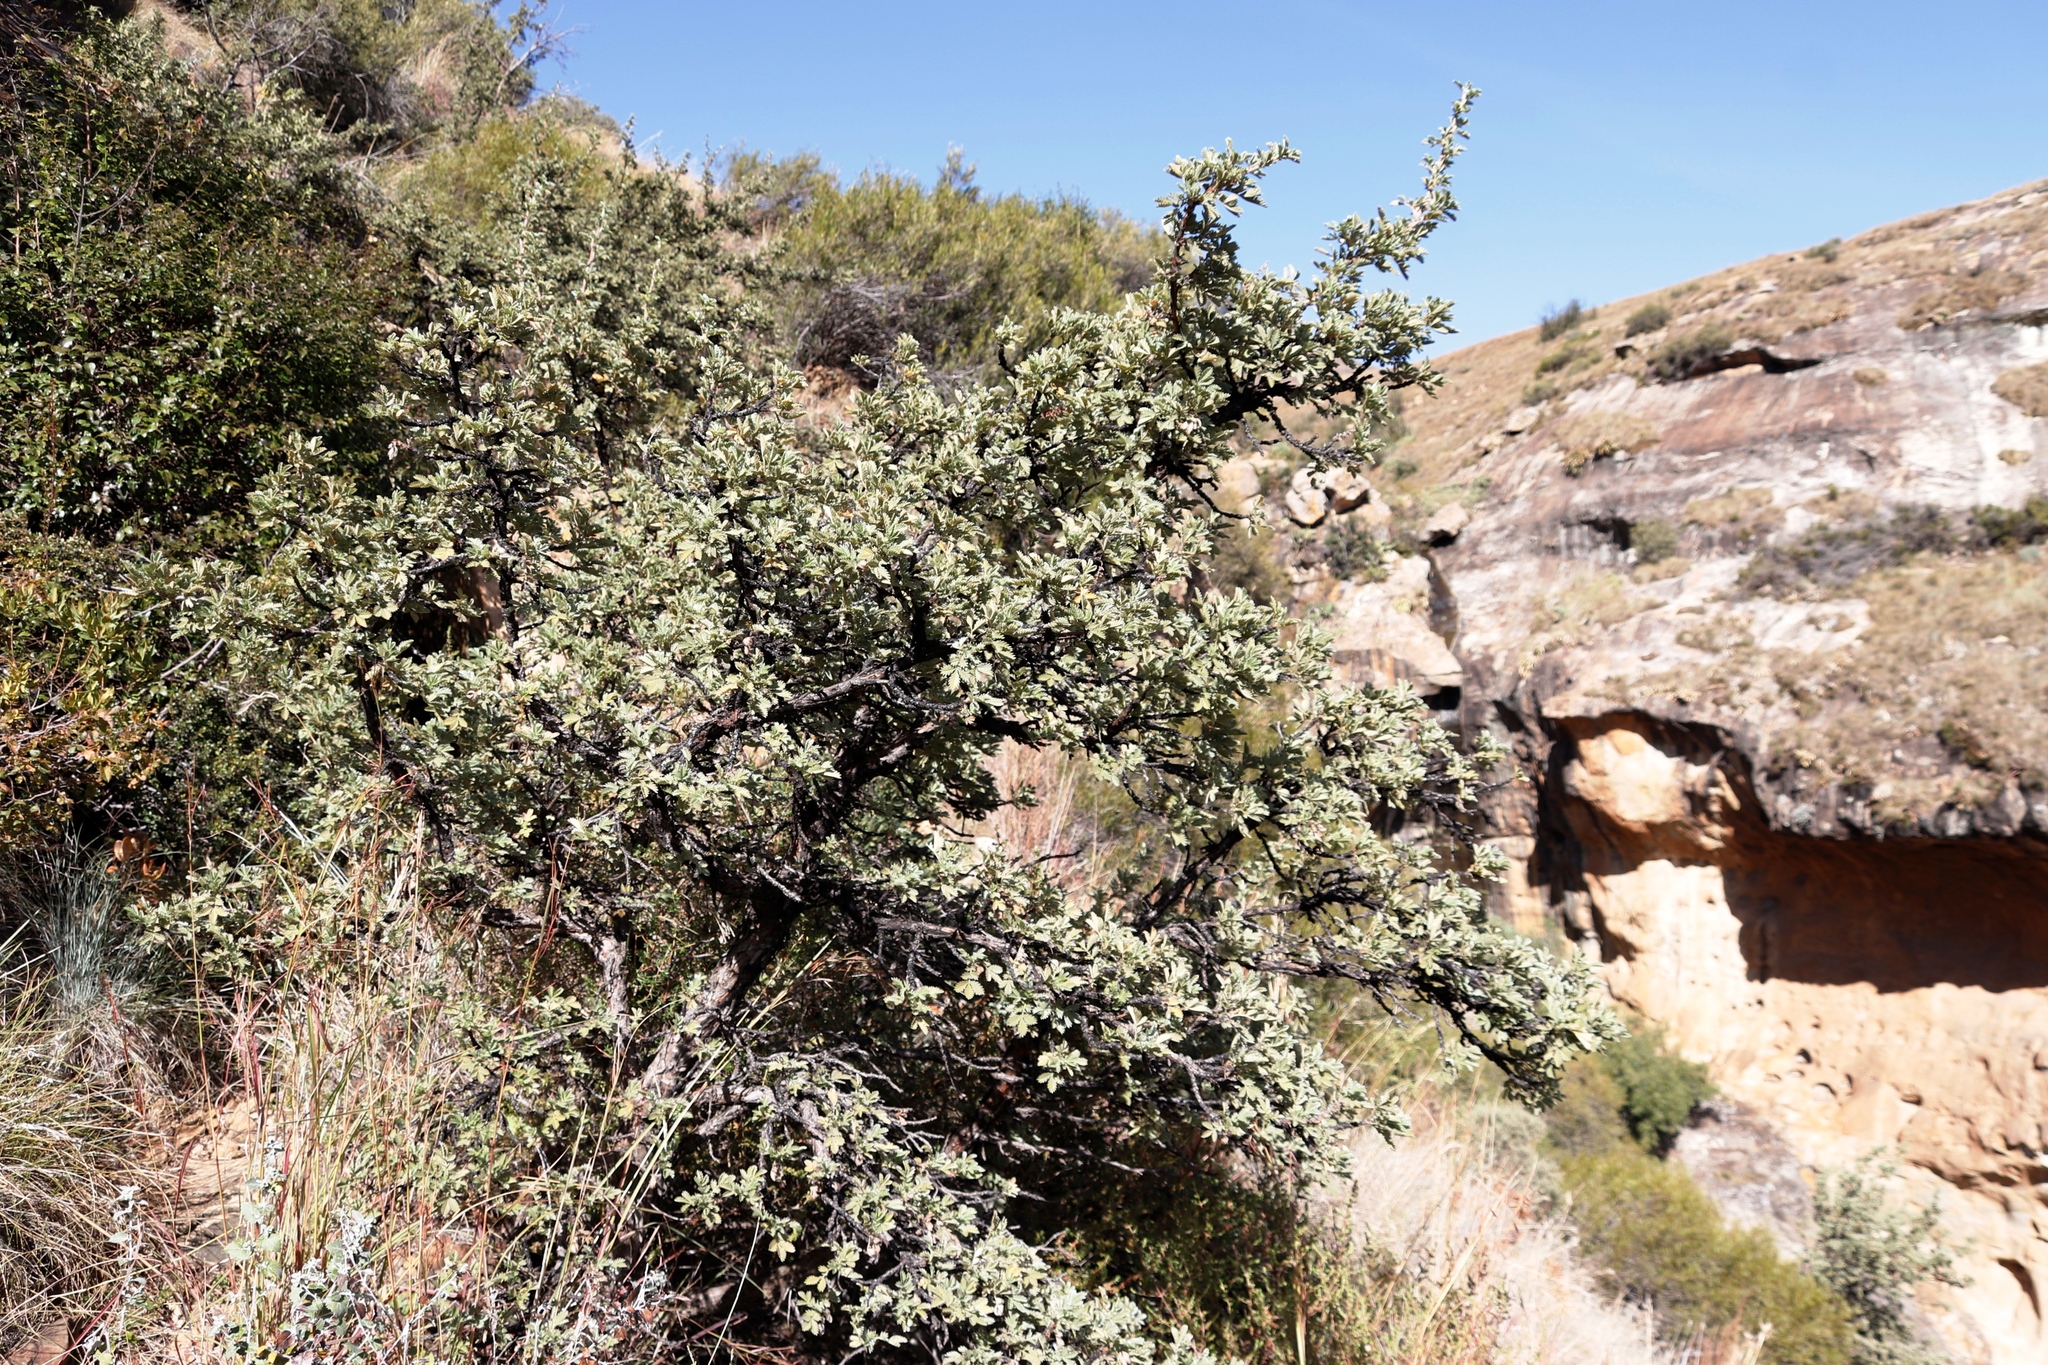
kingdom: Plantae
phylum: Tracheophyta
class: Magnoliopsida
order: Rosales
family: Rosaceae
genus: Leucosidea
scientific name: Leucosidea sericea
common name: Oldwood
